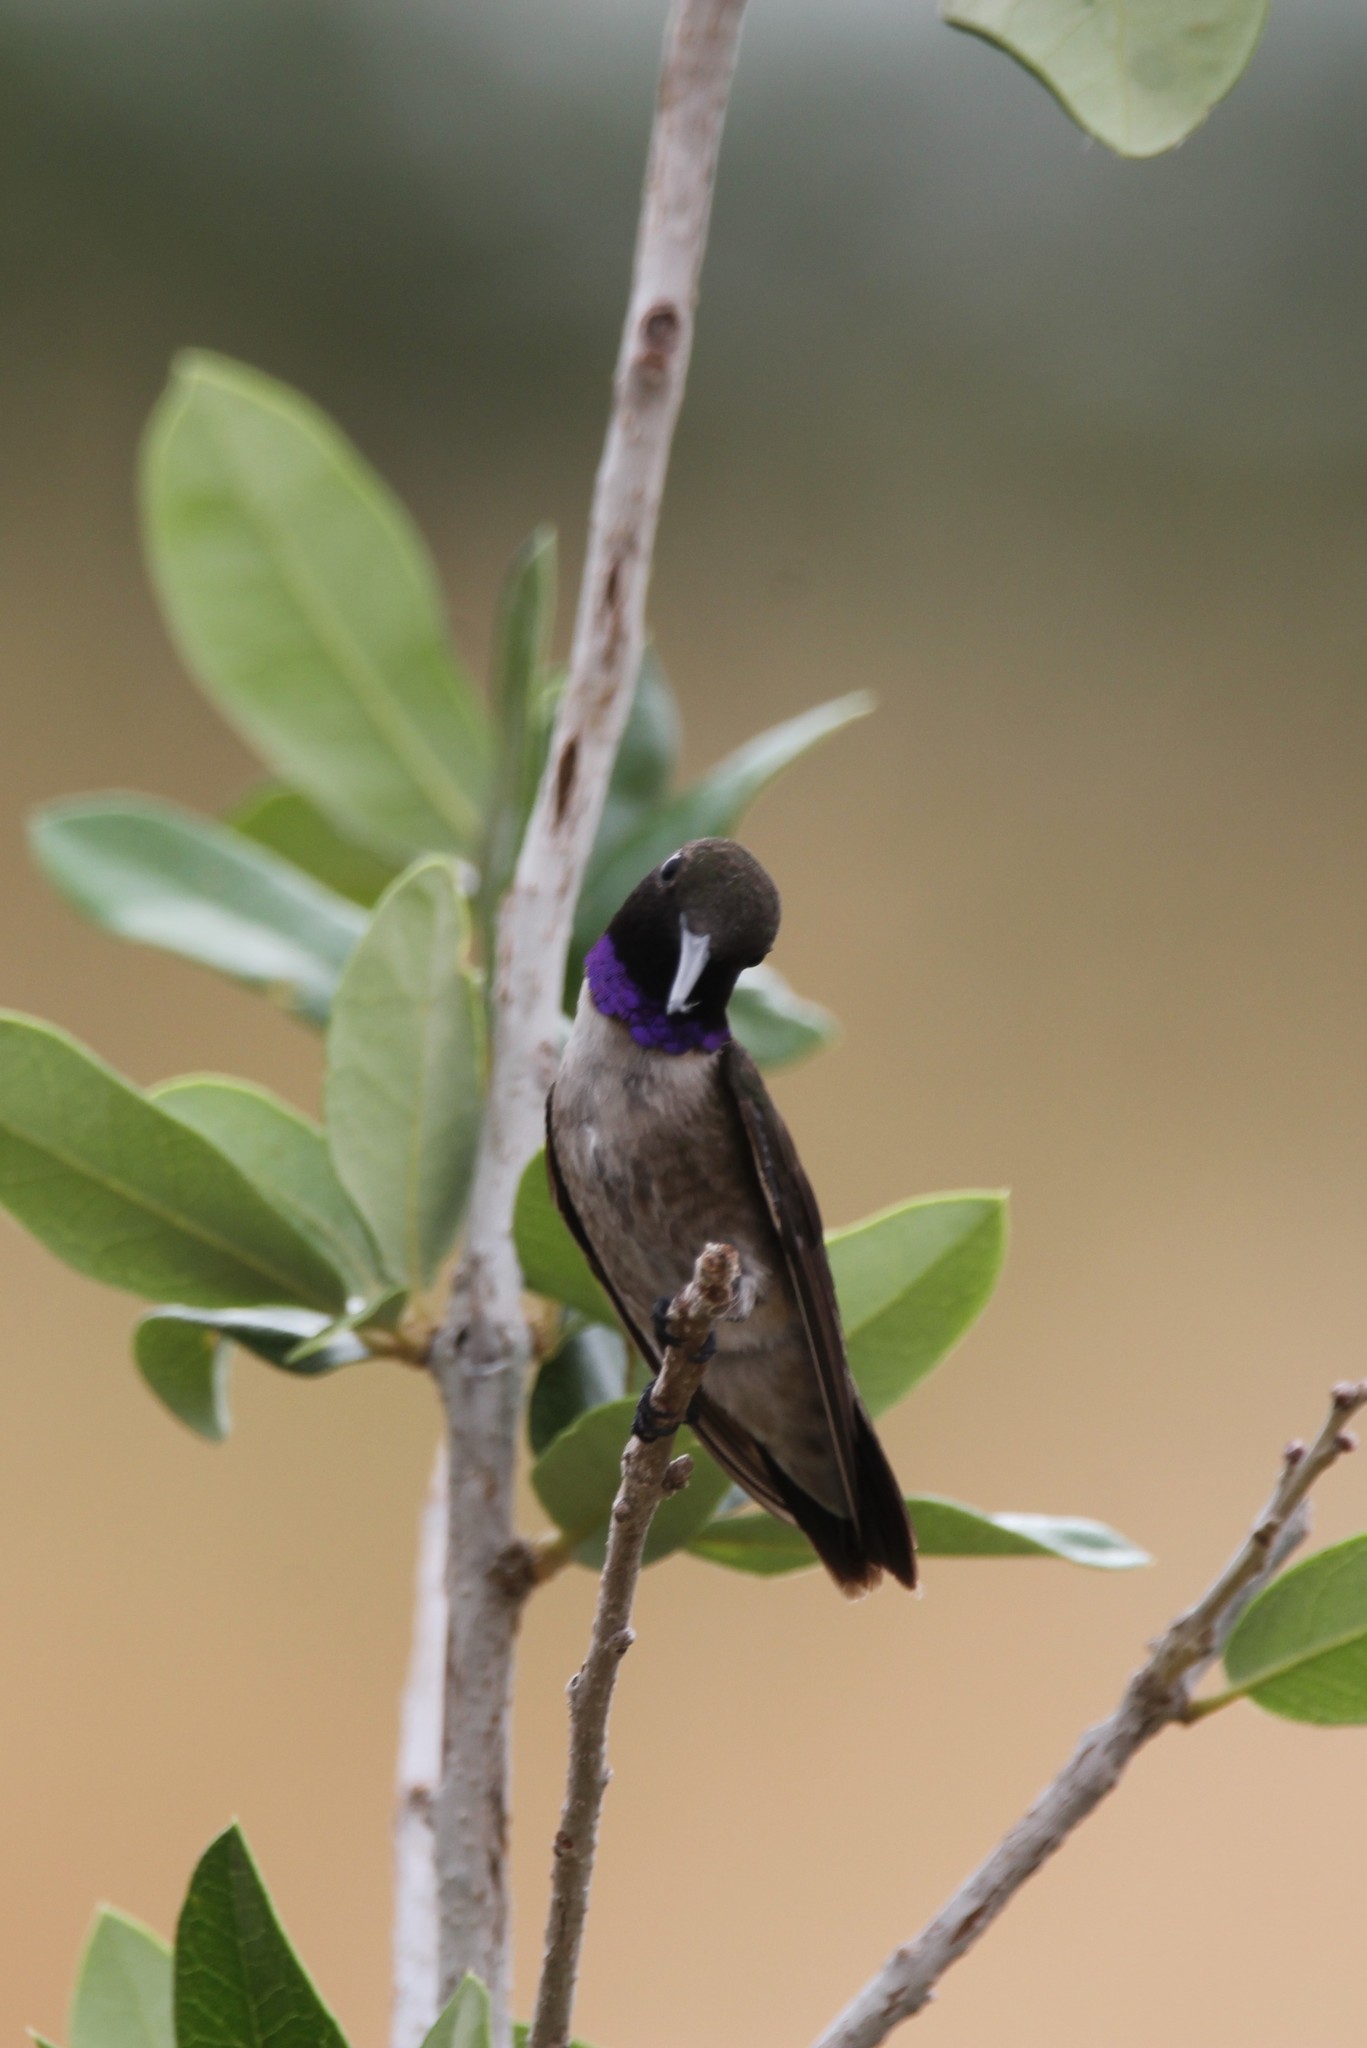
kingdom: Animalia
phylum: Chordata
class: Aves
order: Apodiformes
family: Trochilidae
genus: Archilochus
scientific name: Archilochus alexandri
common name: Black-chinned hummingbird
